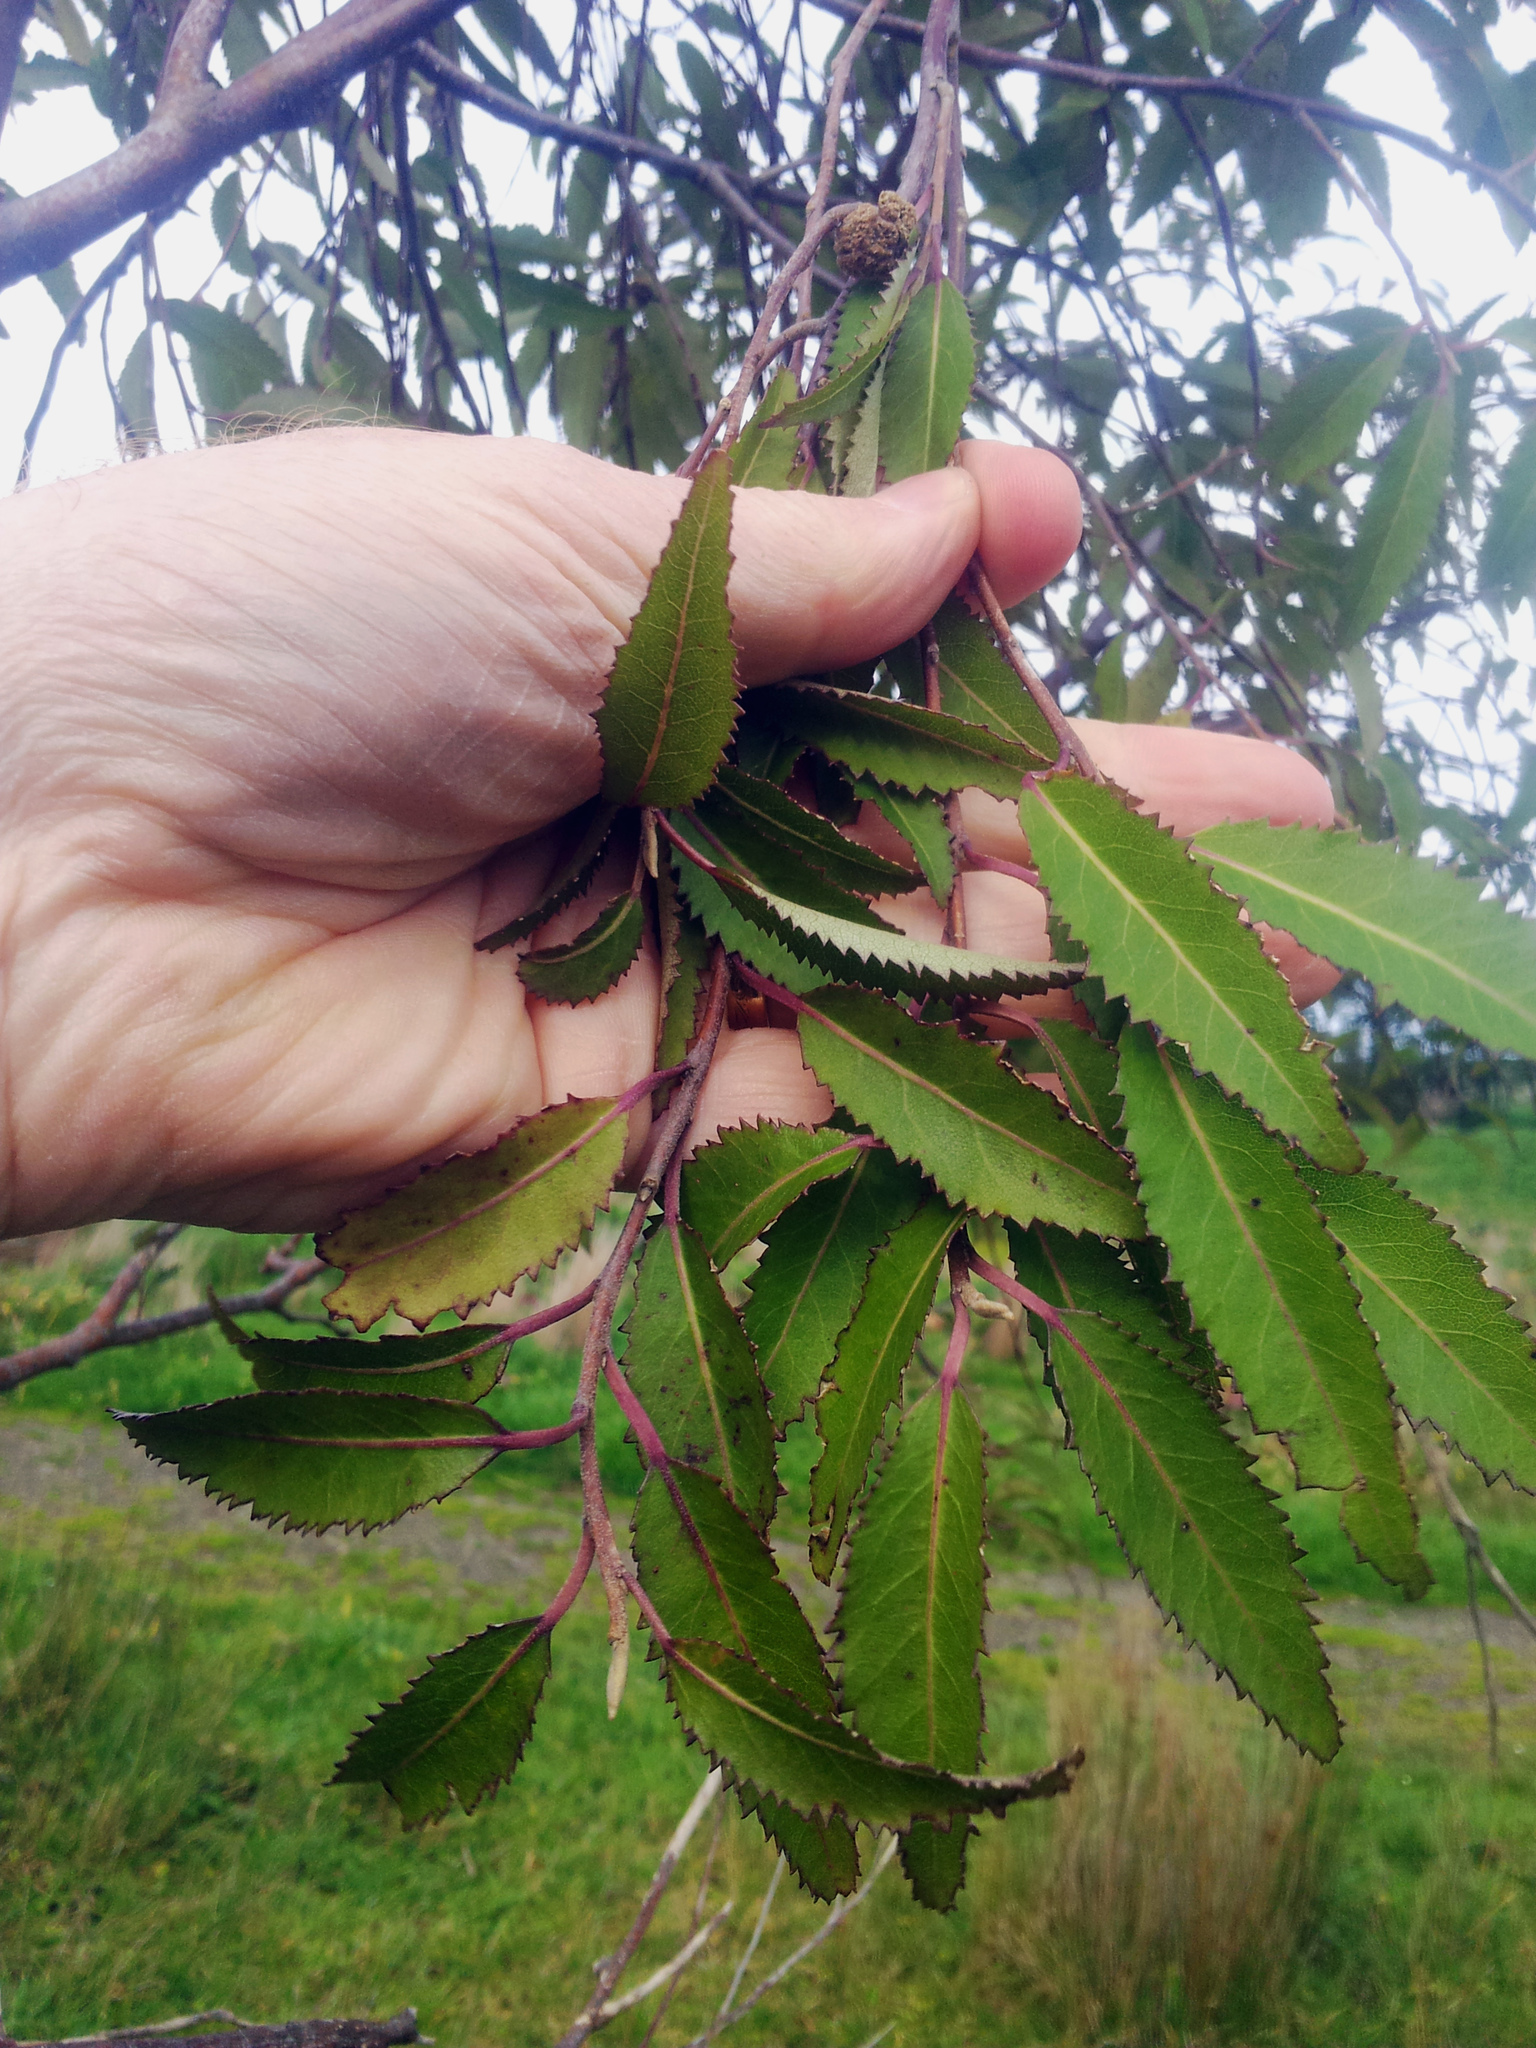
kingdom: Plantae
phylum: Tracheophyta
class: Magnoliopsida
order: Malvales
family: Malvaceae
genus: Hoheria
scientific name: Hoheria sexstylosa
